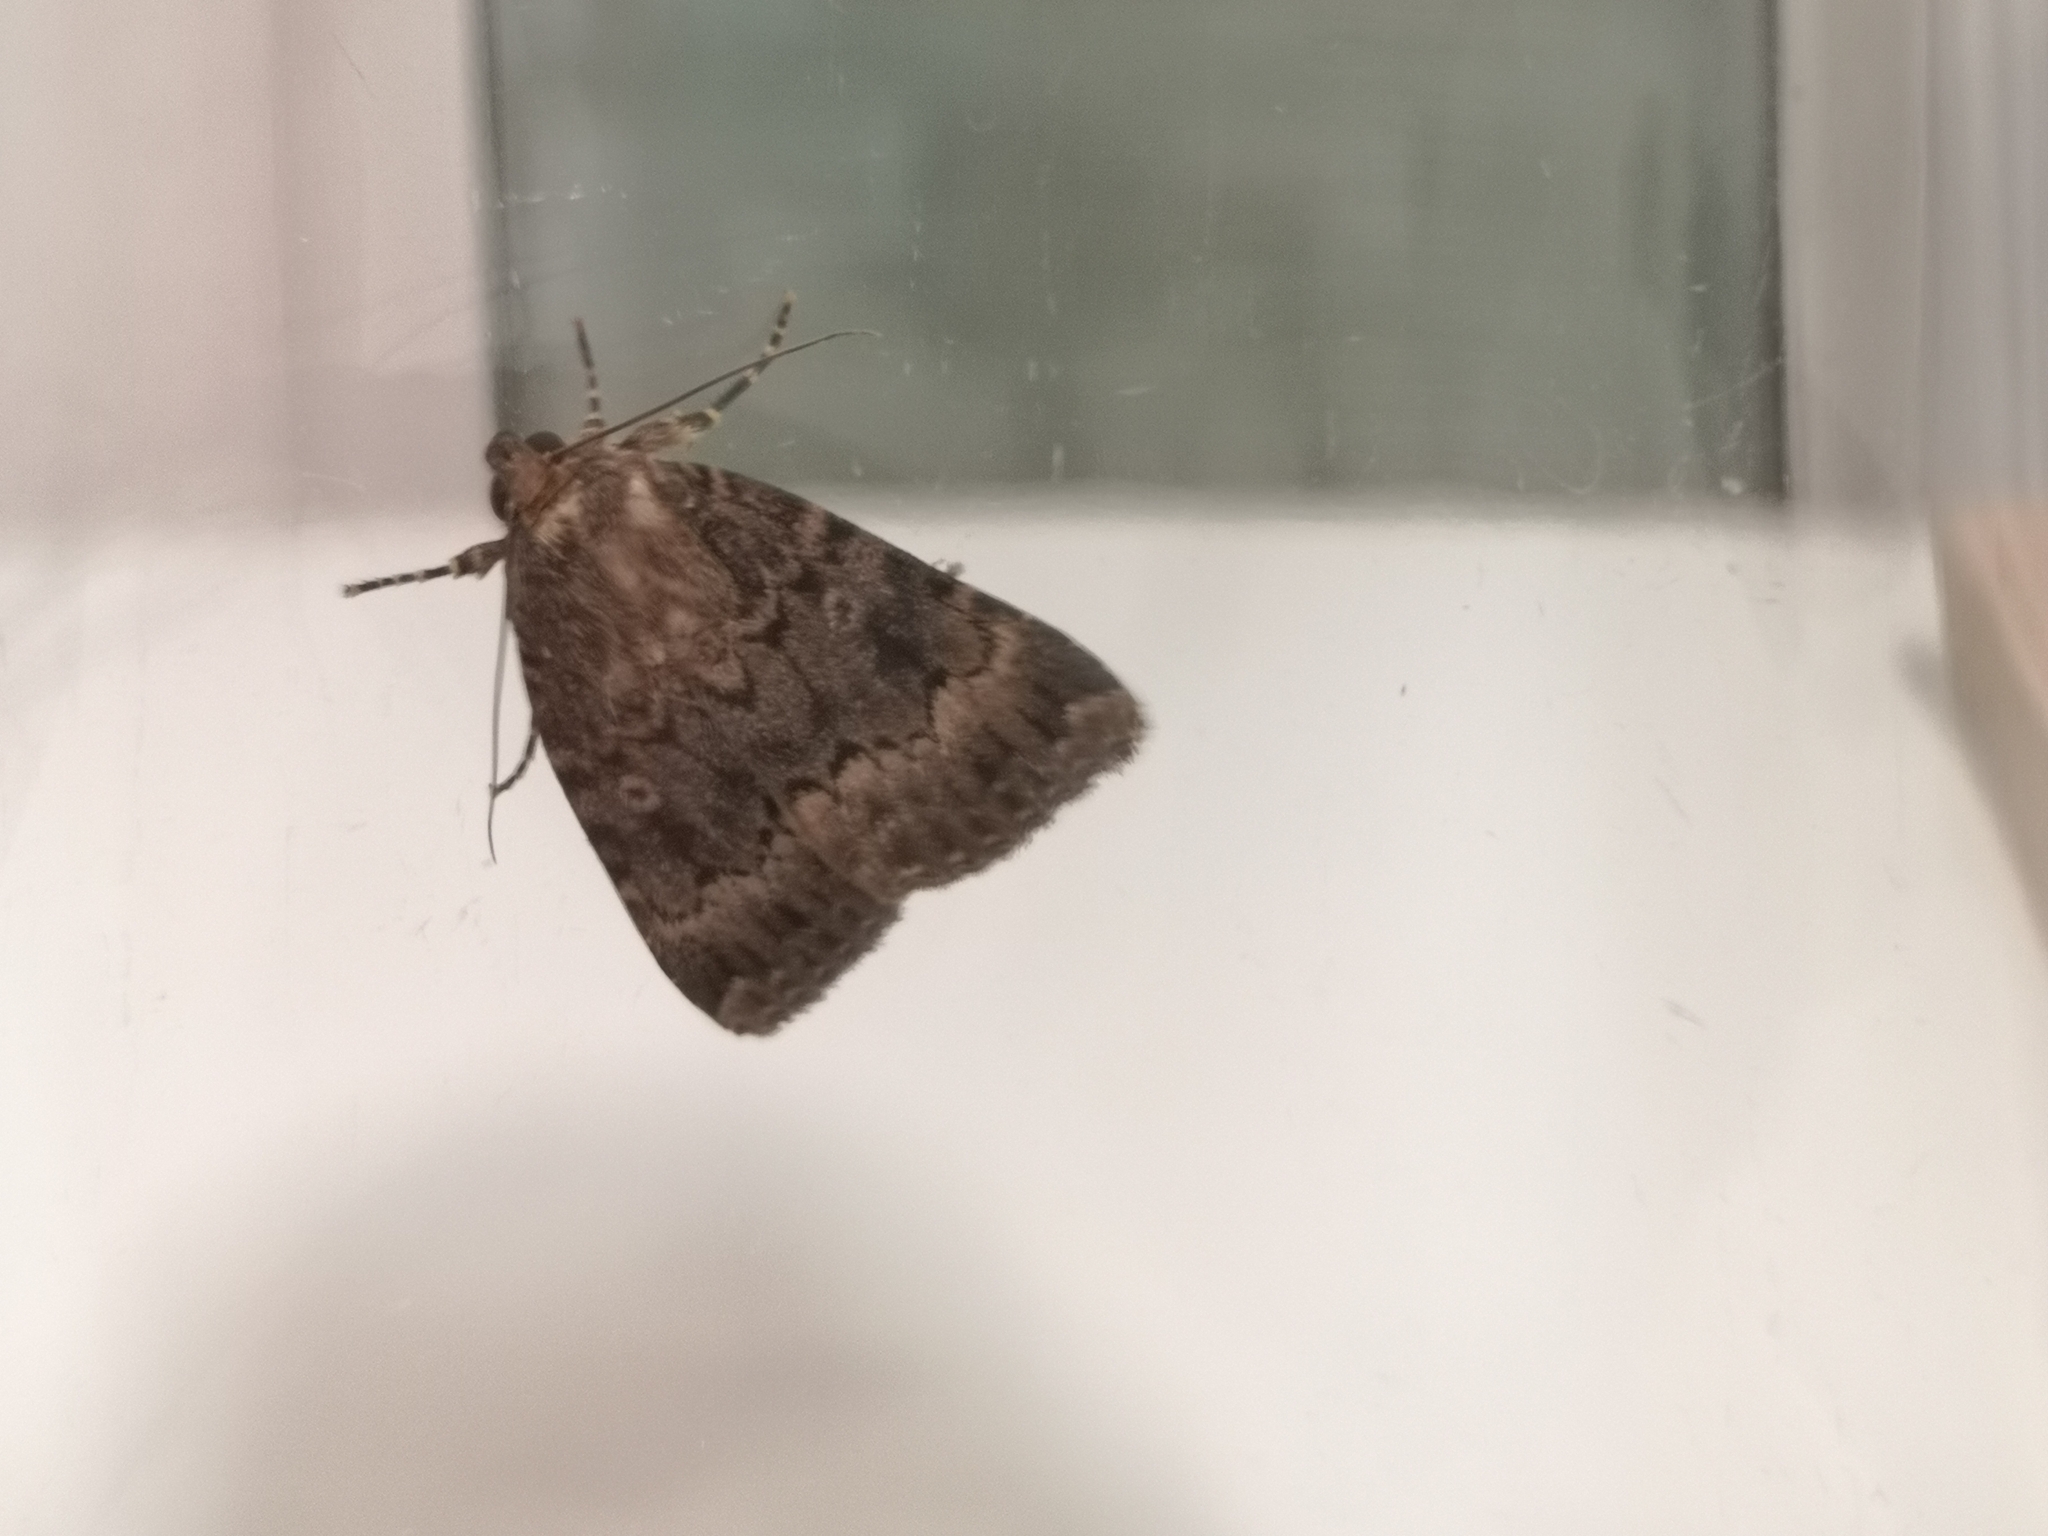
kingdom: Animalia
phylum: Arthropoda
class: Insecta
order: Lepidoptera
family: Noctuidae
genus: Amphipyra
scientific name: Amphipyra berbera
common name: Svensson's copper underwing
